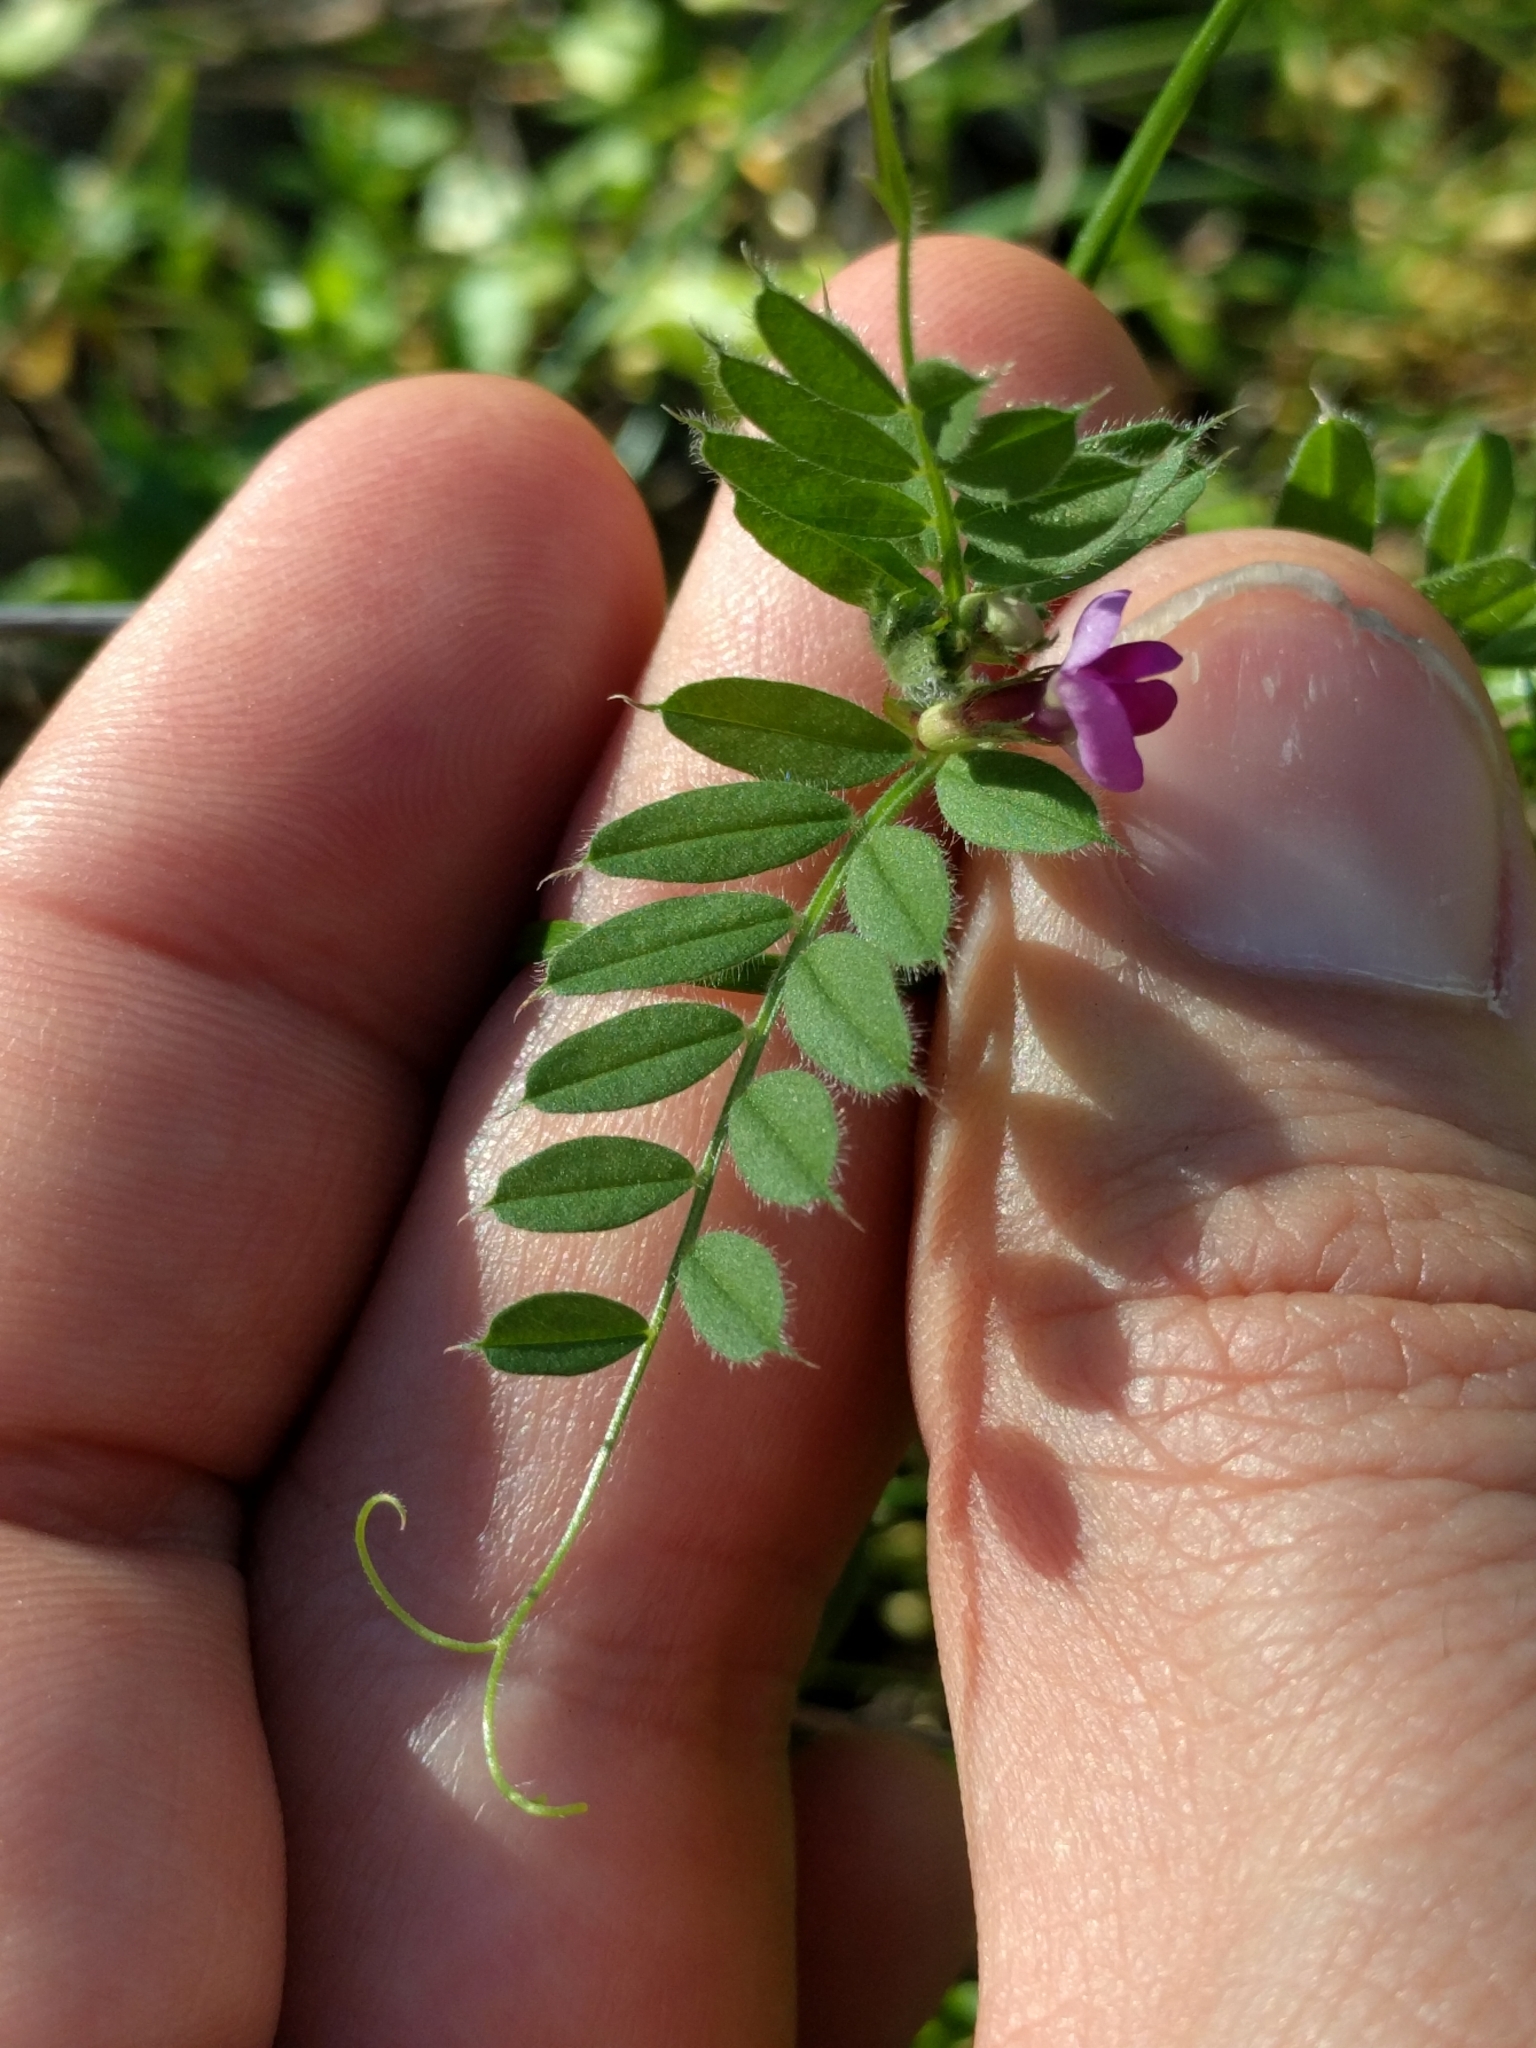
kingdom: Plantae
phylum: Tracheophyta
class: Magnoliopsida
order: Fabales
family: Fabaceae
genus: Vicia
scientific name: Vicia sativa
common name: Garden vetch
